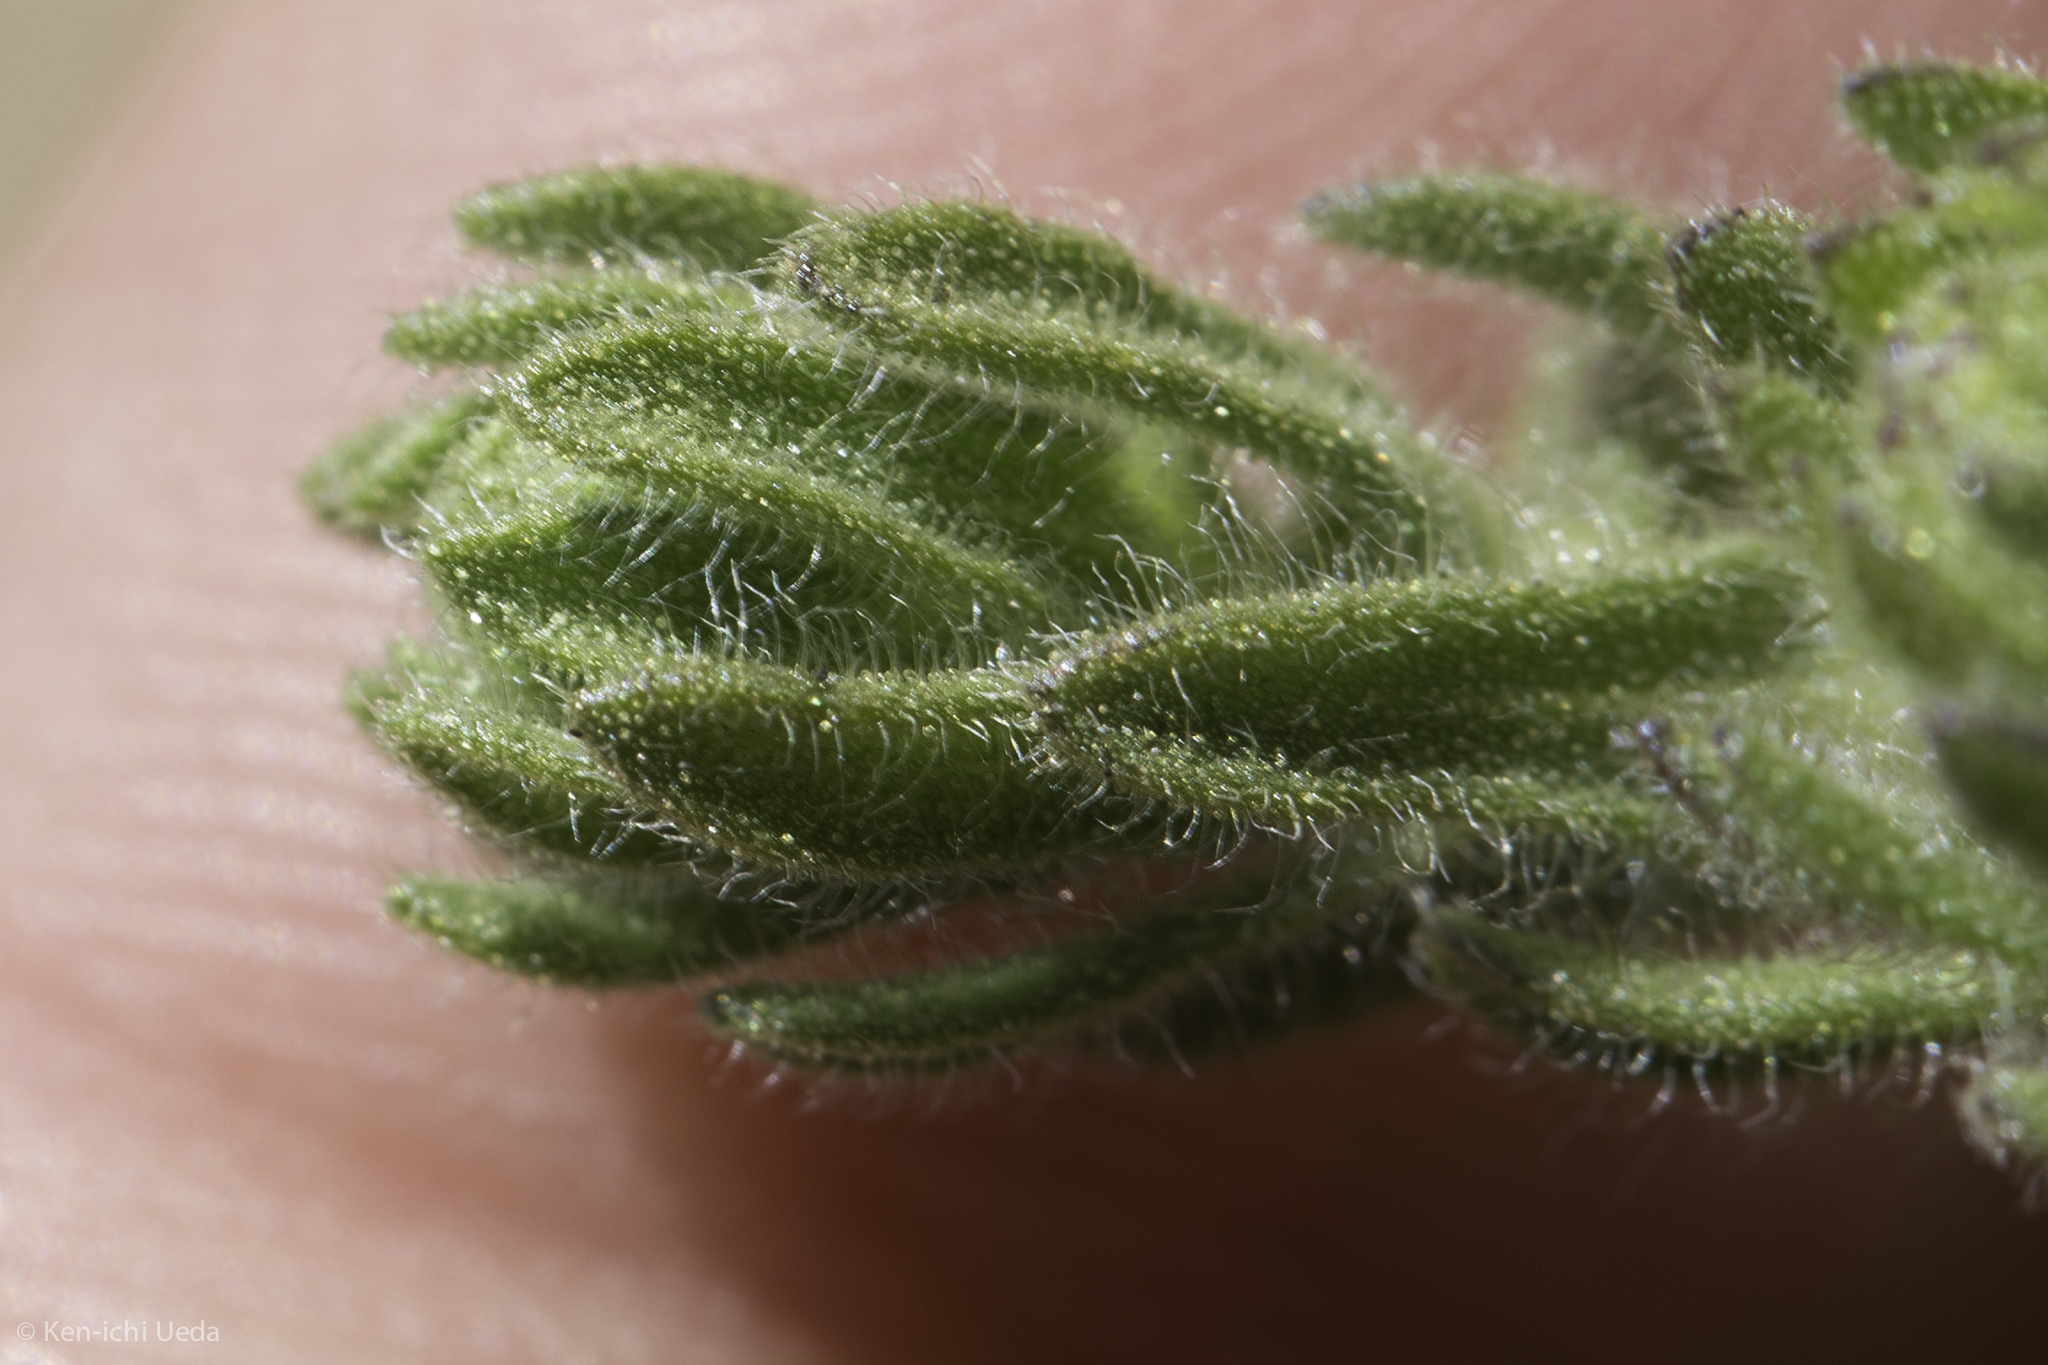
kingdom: Plantae
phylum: Tracheophyta
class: Magnoliopsida
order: Asterales
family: Asteraceae
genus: Deinandra
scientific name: Deinandra bacigalupii
